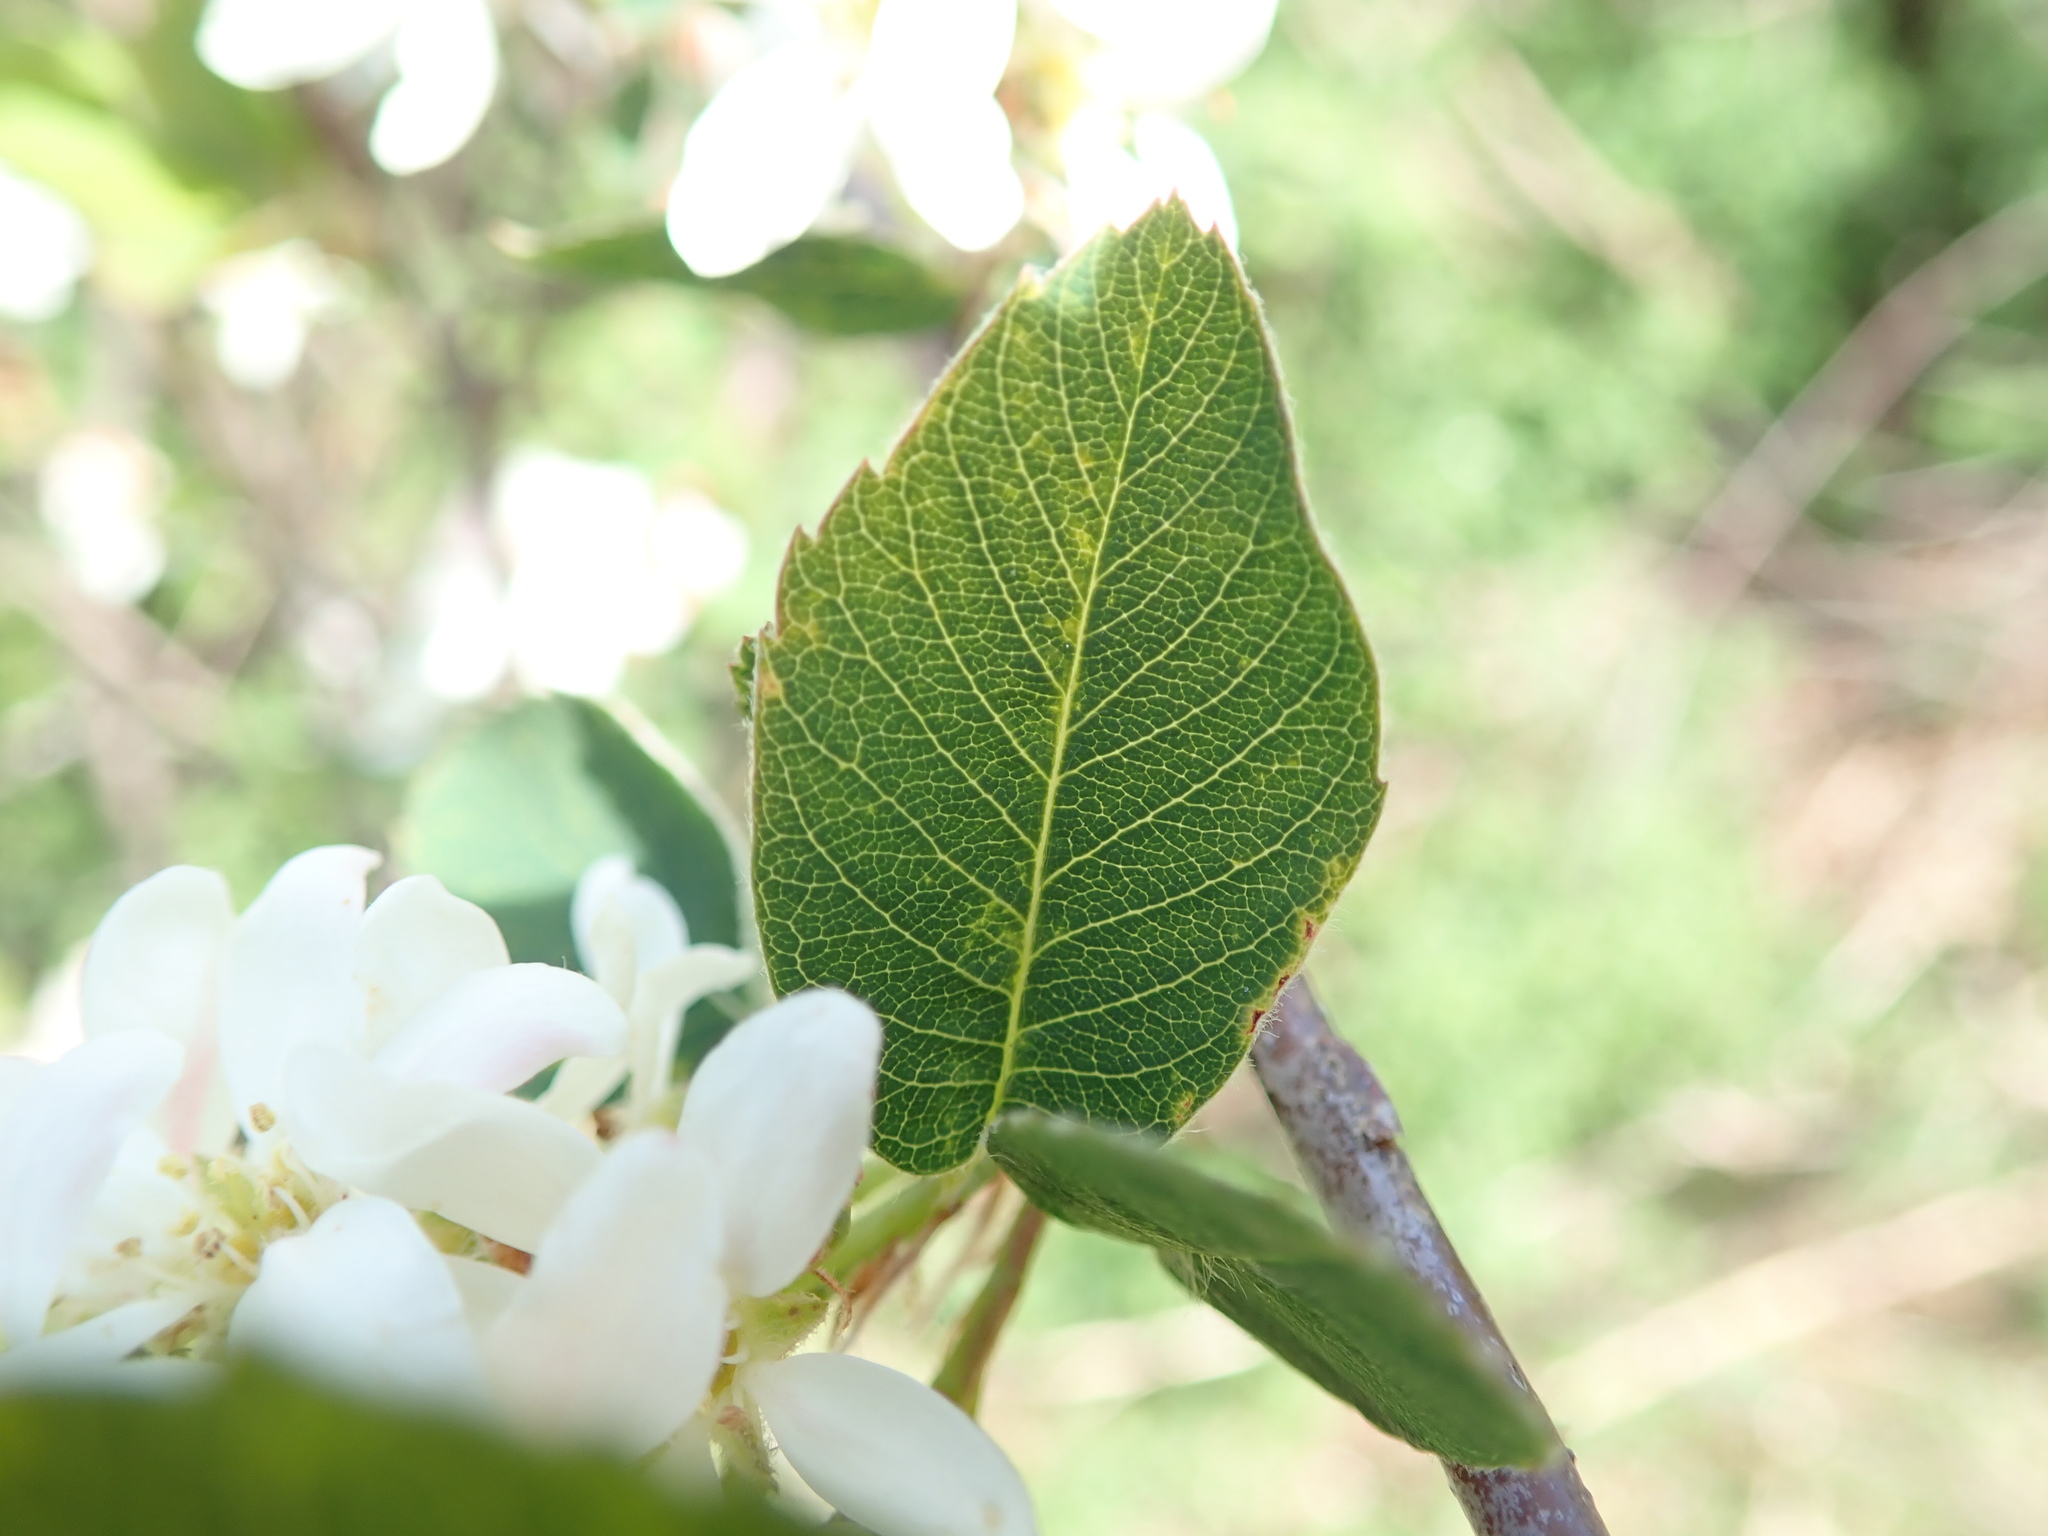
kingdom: Plantae
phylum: Tracheophyta
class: Magnoliopsida
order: Rosales
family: Rosaceae
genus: Amelanchier
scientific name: Amelanchier alnifolia
